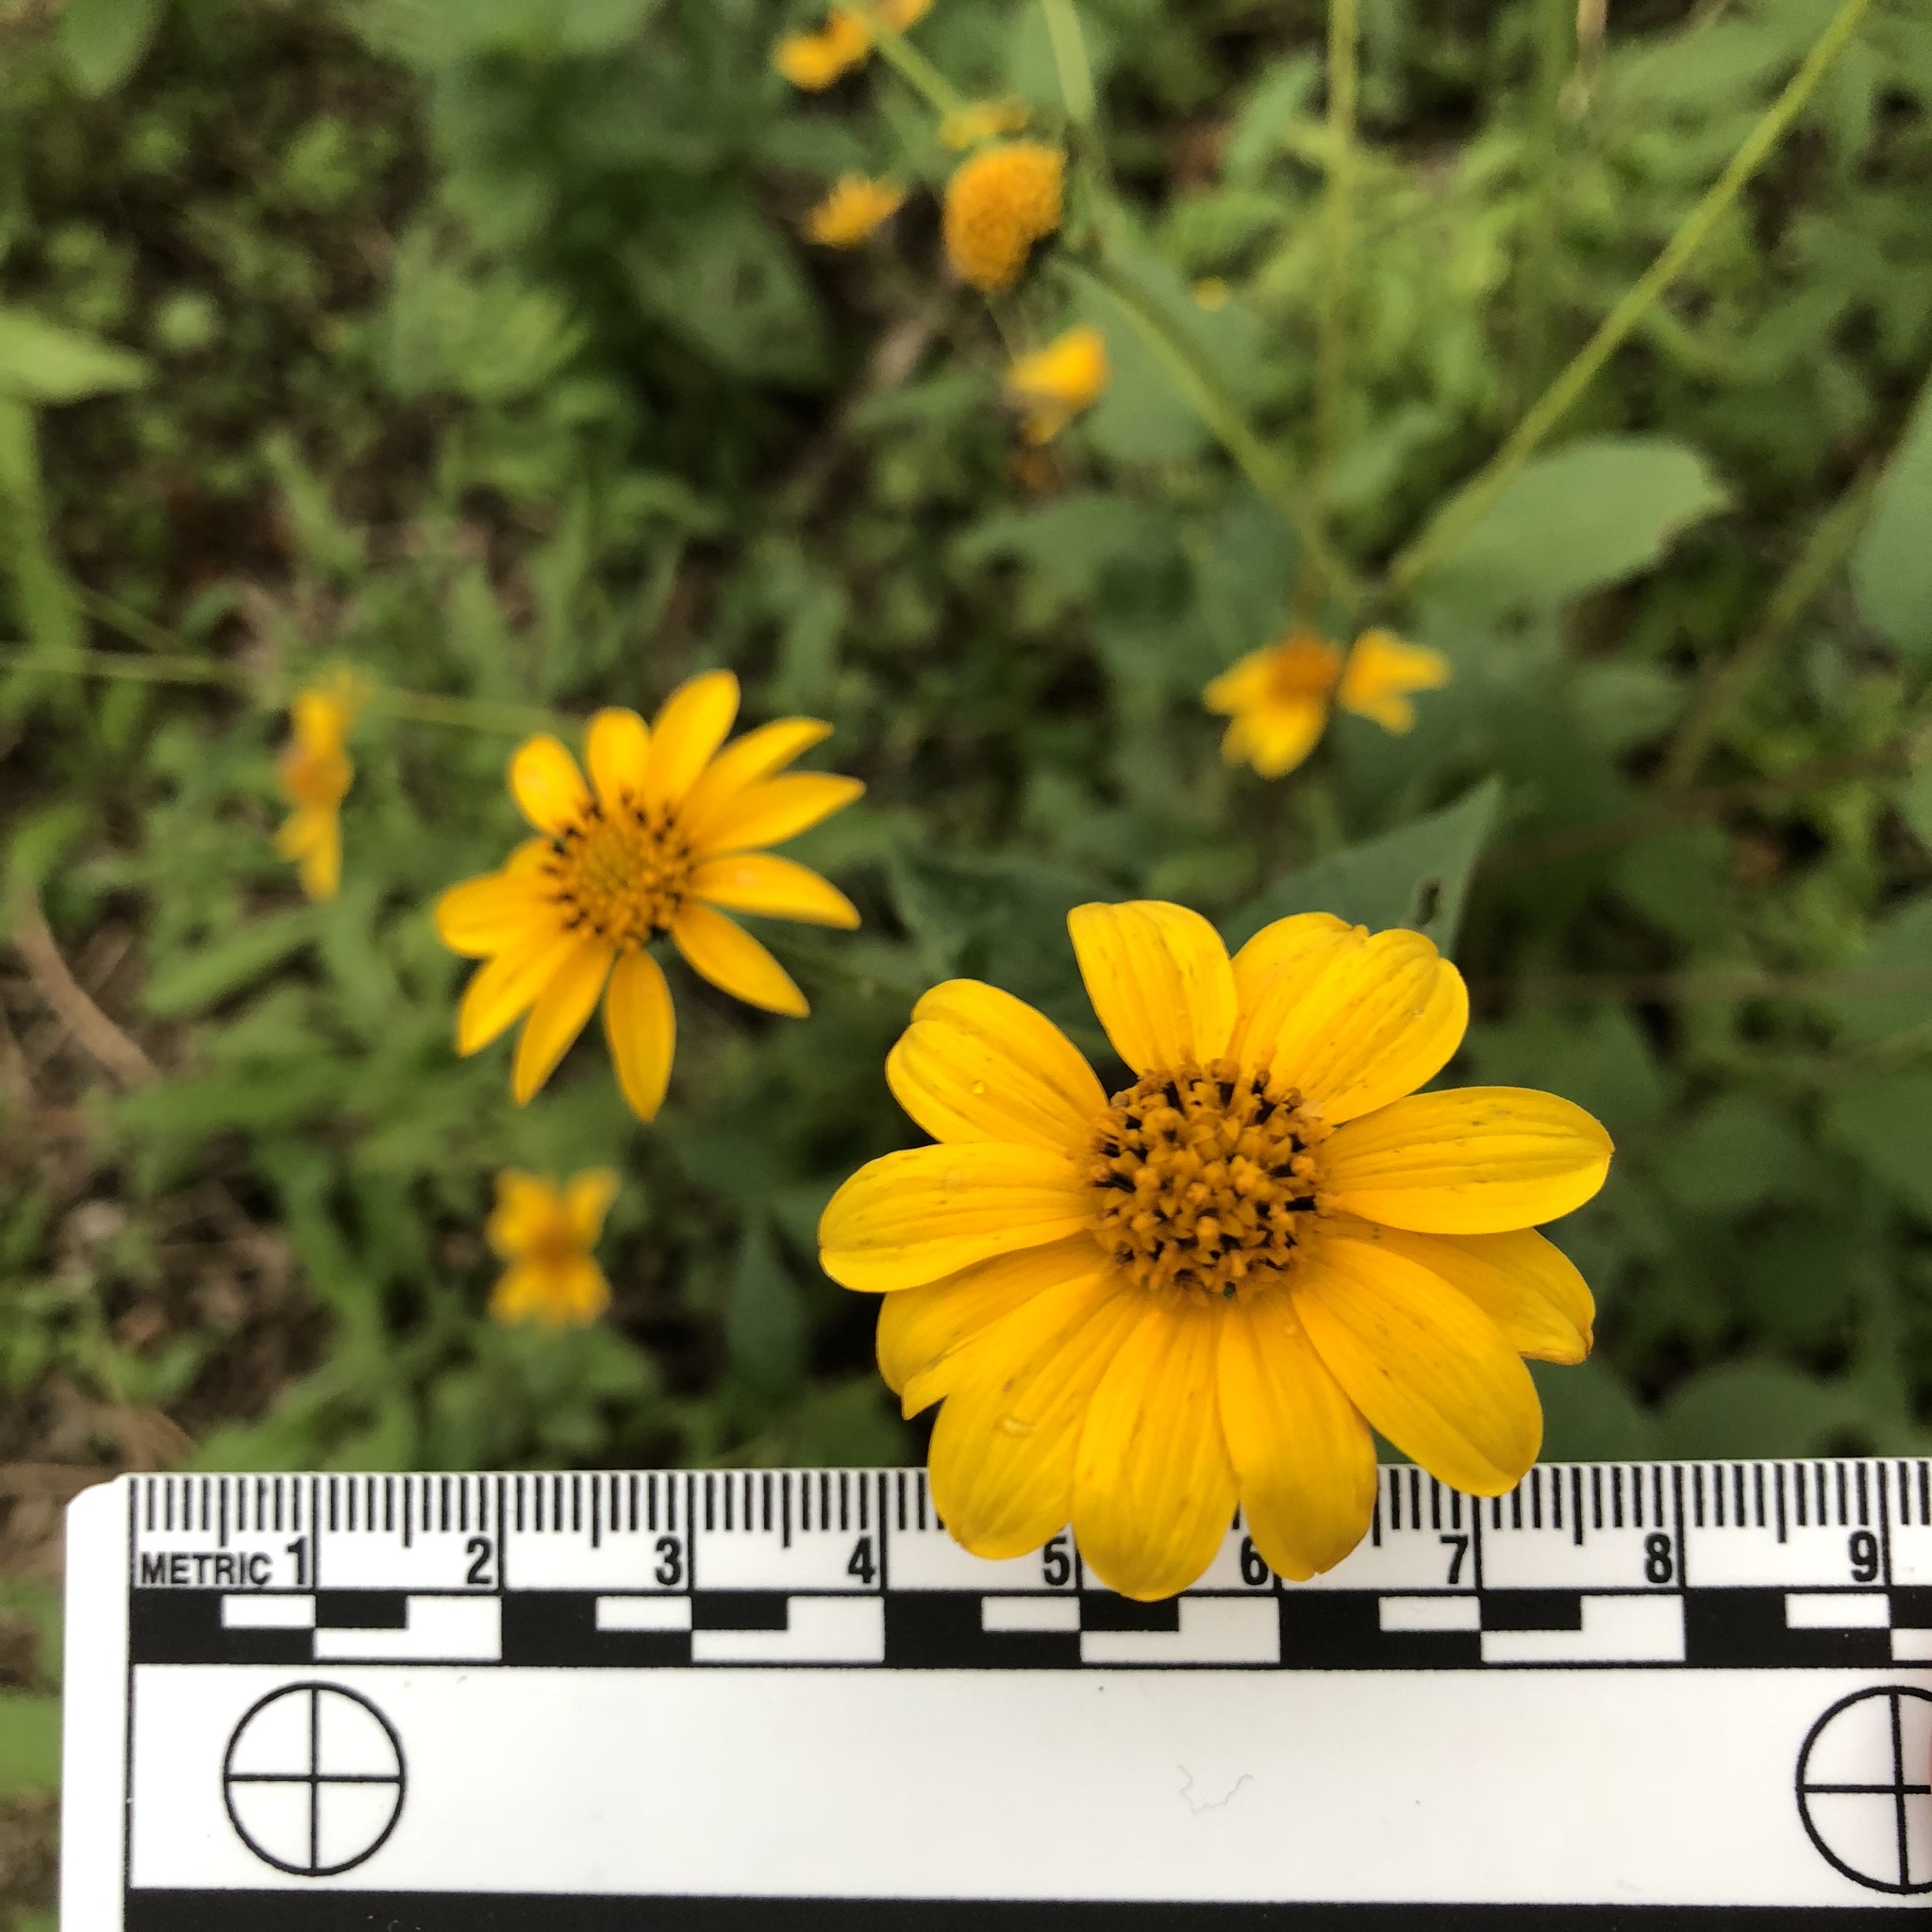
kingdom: Plantae
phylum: Tracheophyta
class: Magnoliopsida
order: Asterales
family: Asteraceae
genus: Viguiera
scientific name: Viguiera dentata
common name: Toothleaf
